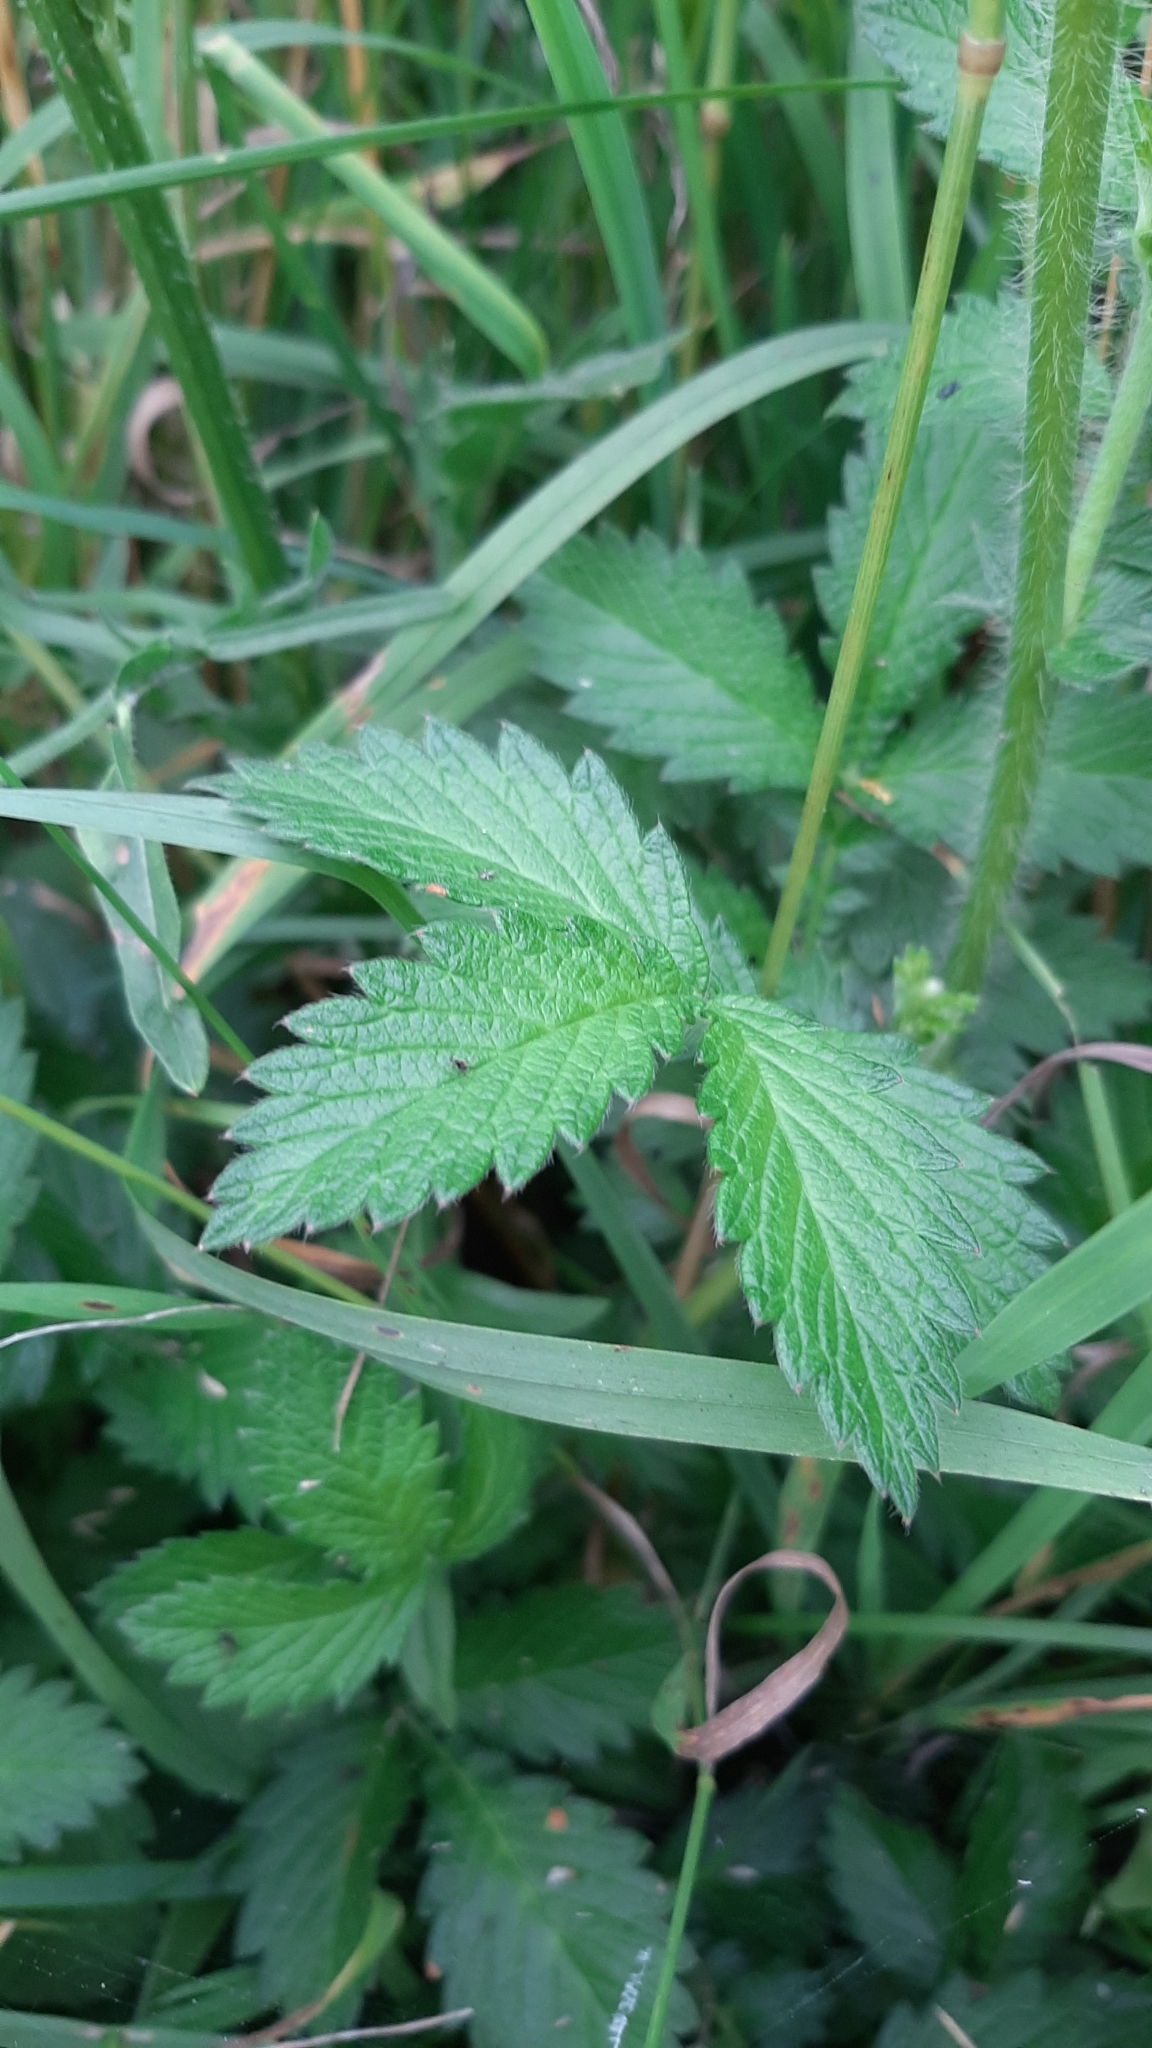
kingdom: Plantae
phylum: Tracheophyta
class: Magnoliopsida
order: Rosales
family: Rosaceae
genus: Agrimonia
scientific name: Agrimonia eupatoria
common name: Agrimony
